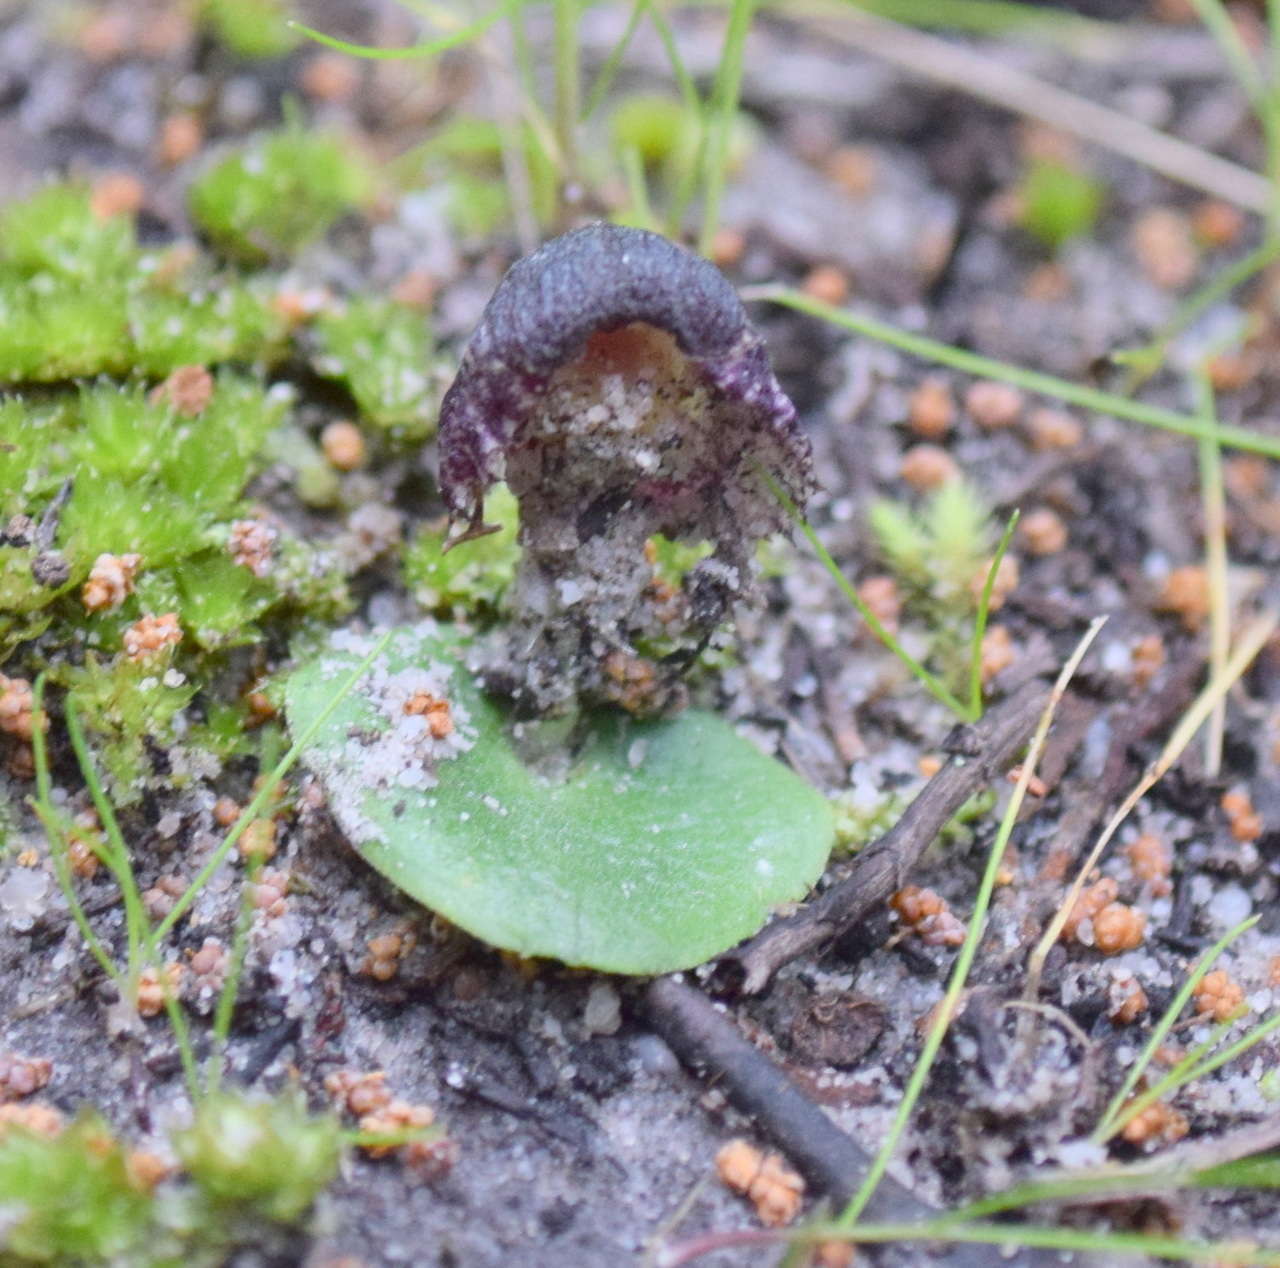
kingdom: Plantae
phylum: Tracheophyta
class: Liliopsida
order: Asparagales
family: Orchidaceae
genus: Corybas
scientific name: Corybas diemenicus
